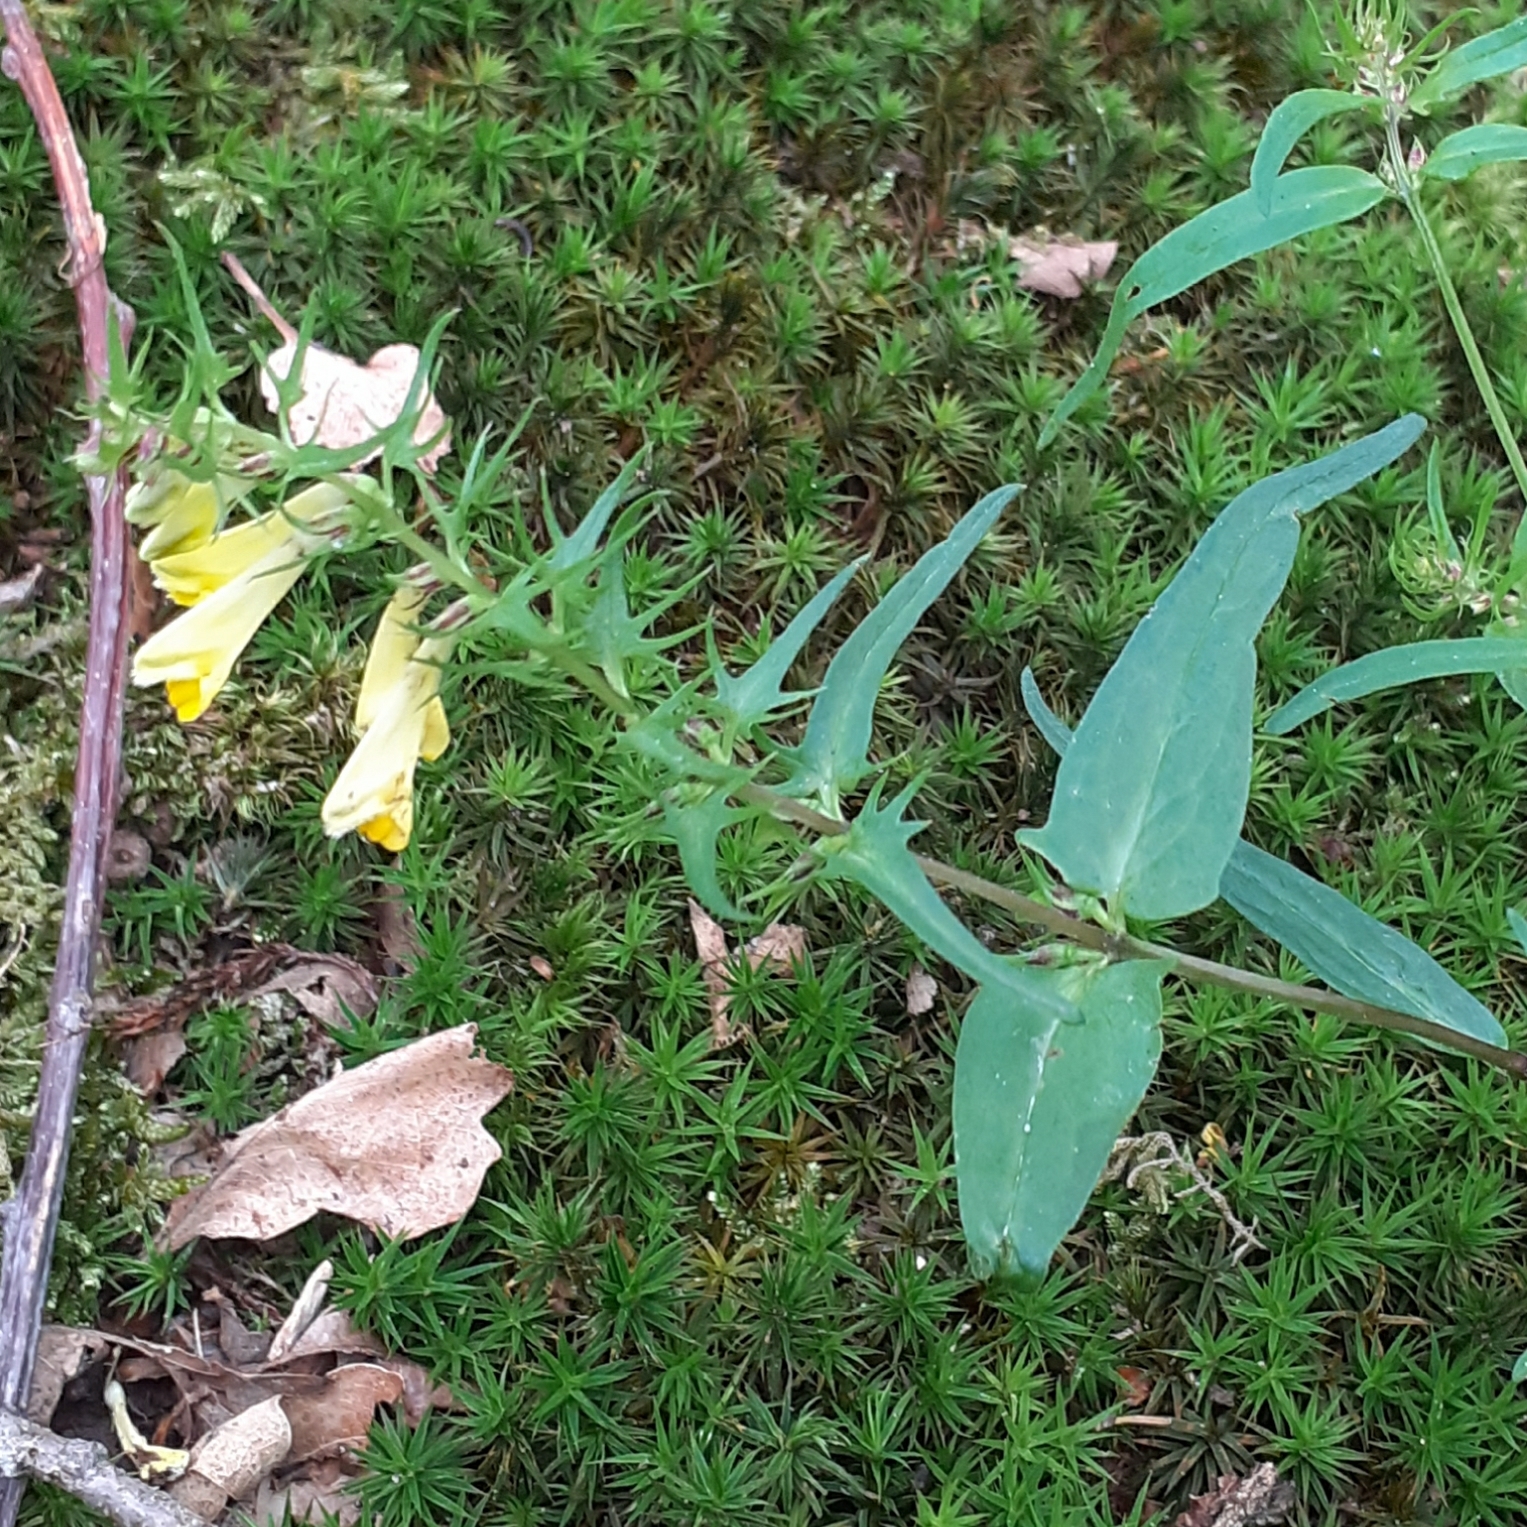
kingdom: Plantae
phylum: Tracheophyta
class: Magnoliopsida
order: Lamiales
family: Orobanchaceae
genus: Melampyrum
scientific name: Melampyrum pratense
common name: Common cow-wheat
